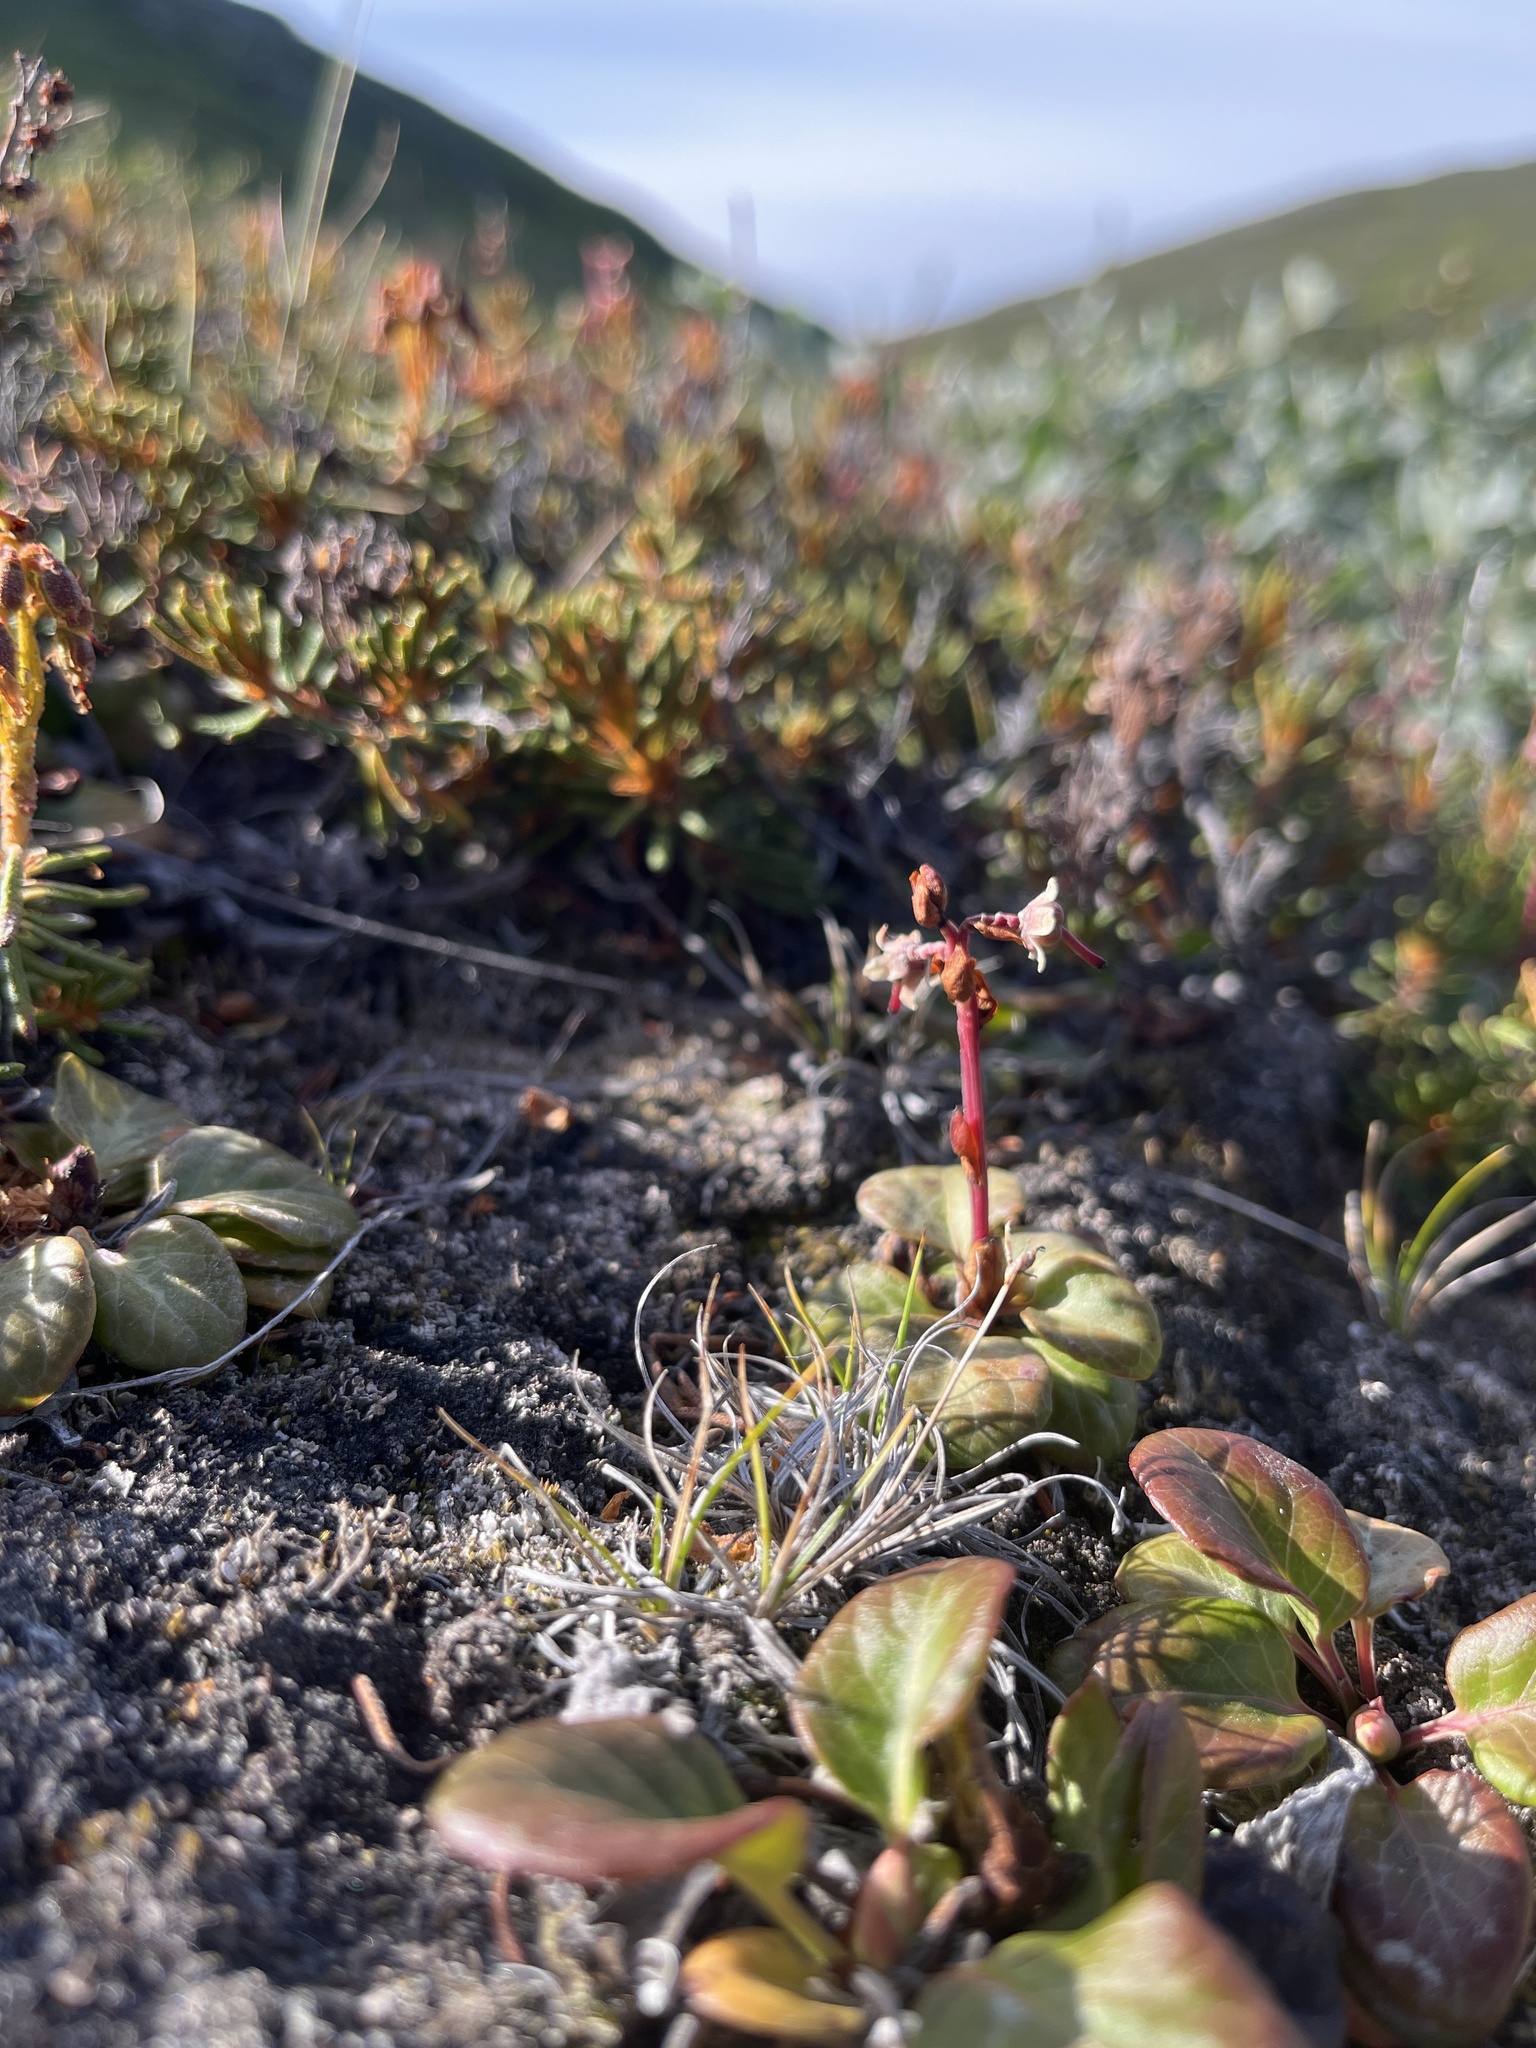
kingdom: Plantae
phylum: Tracheophyta
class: Magnoliopsida
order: Ericales
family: Ericaceae
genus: Pyrola
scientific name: Pyrola minor
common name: Common wintergreen
